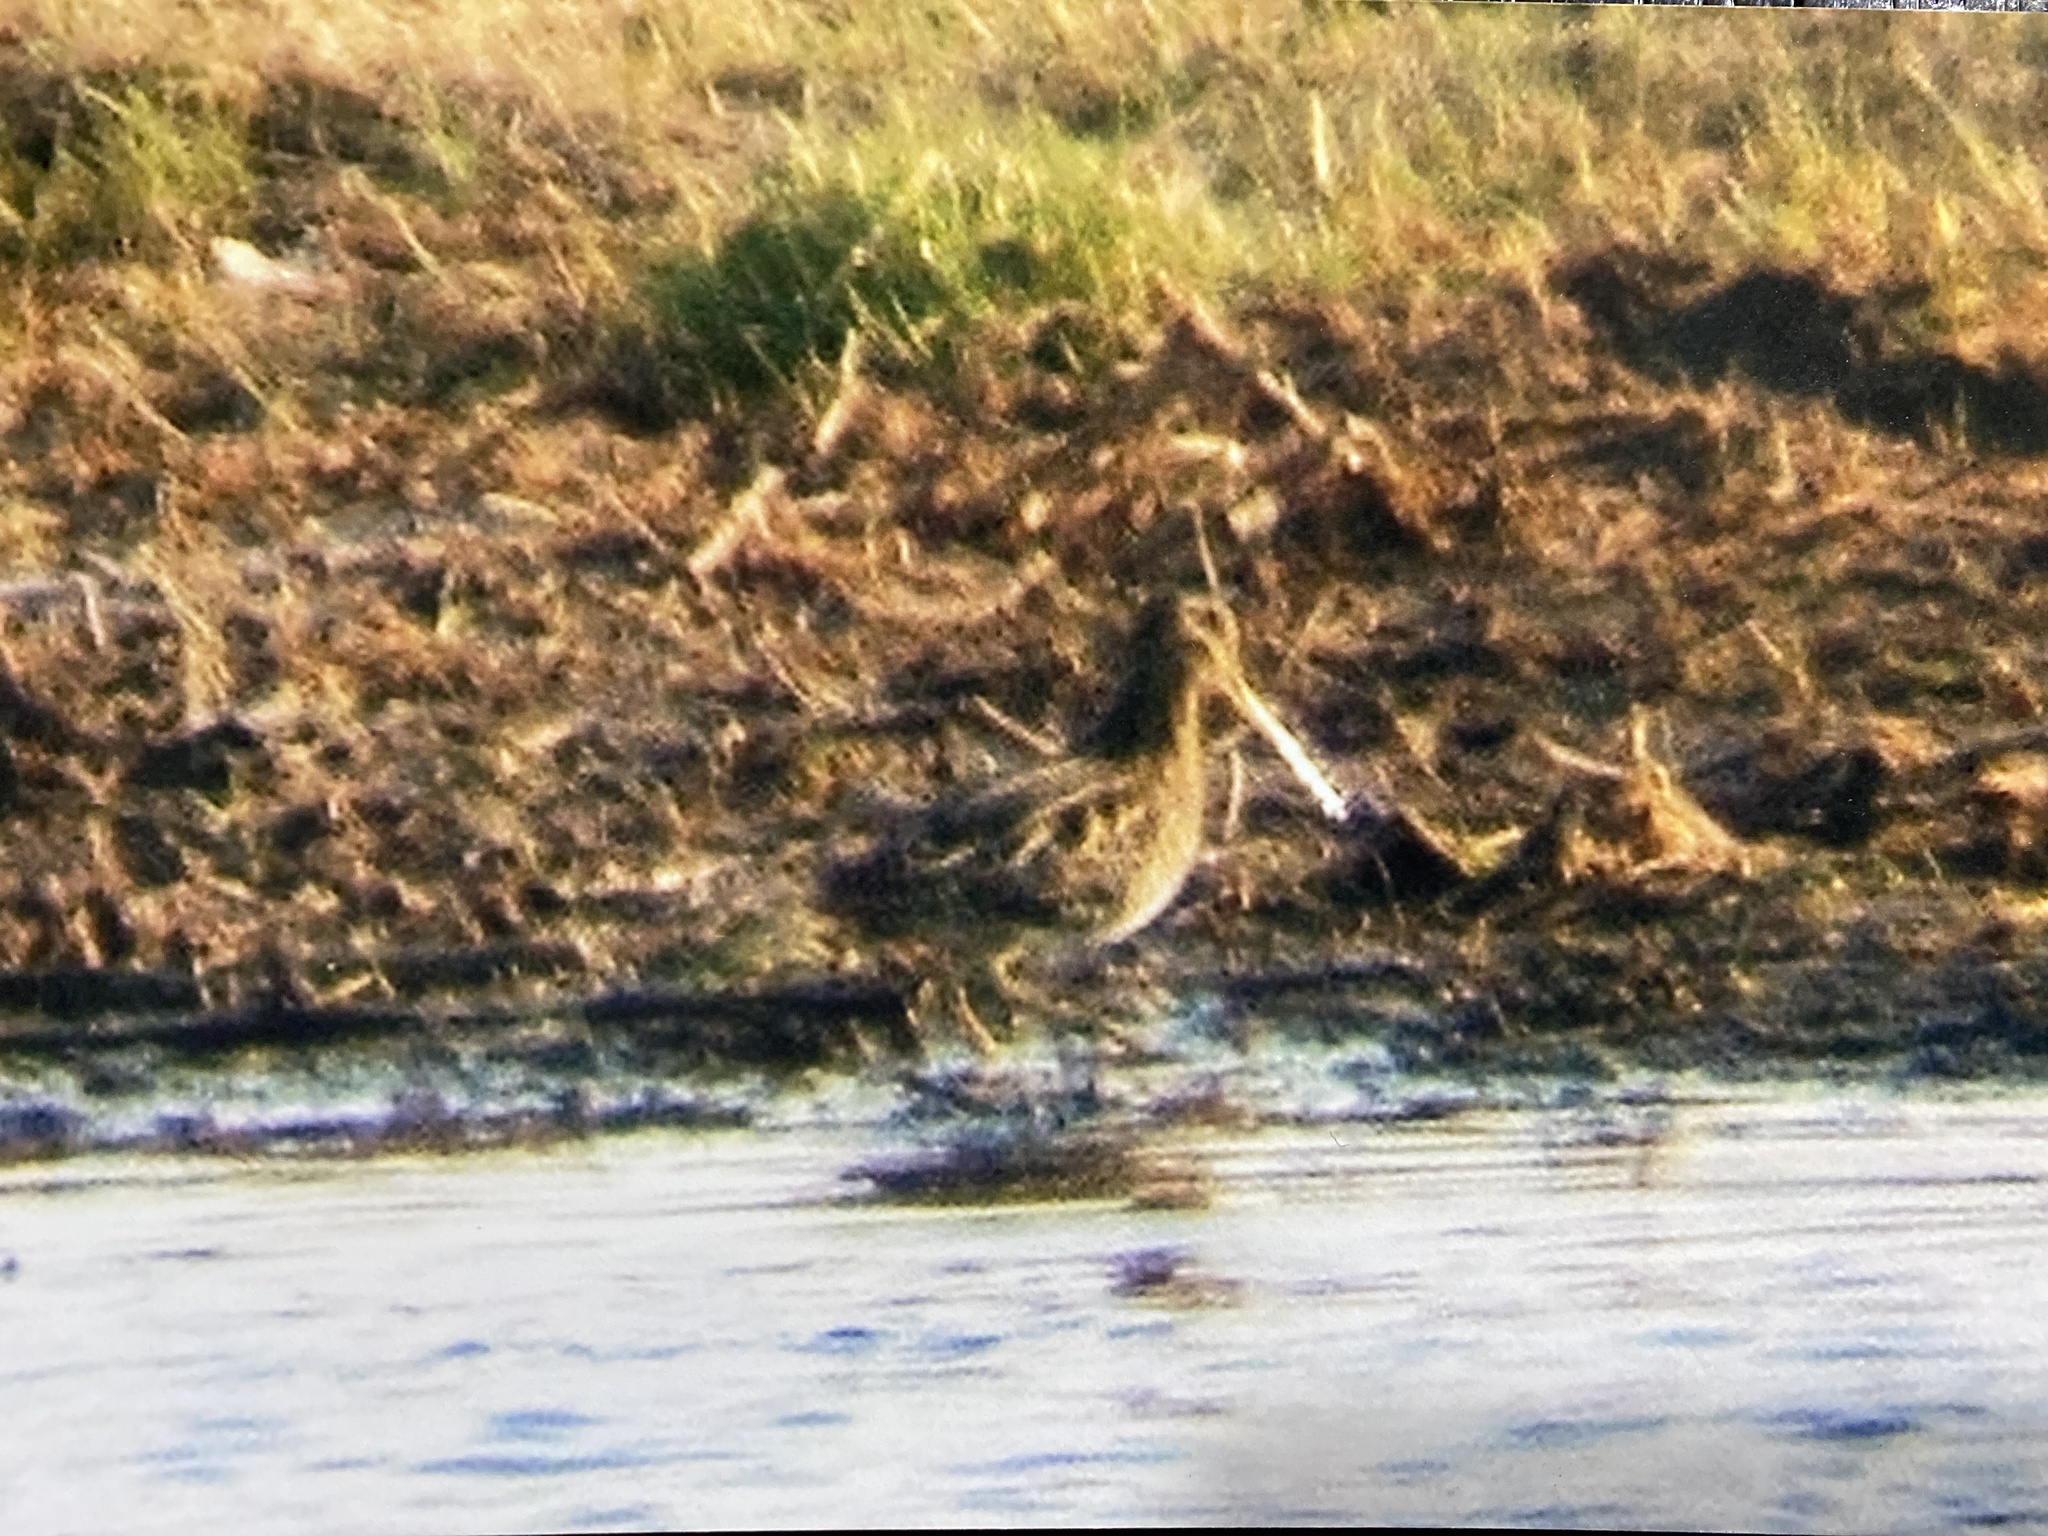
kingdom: Animalia
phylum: Chordata
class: Aves
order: Charadriiformes
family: Scolopacidae
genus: Gallinago
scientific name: Gallinago delicata
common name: Wilson's snipe
